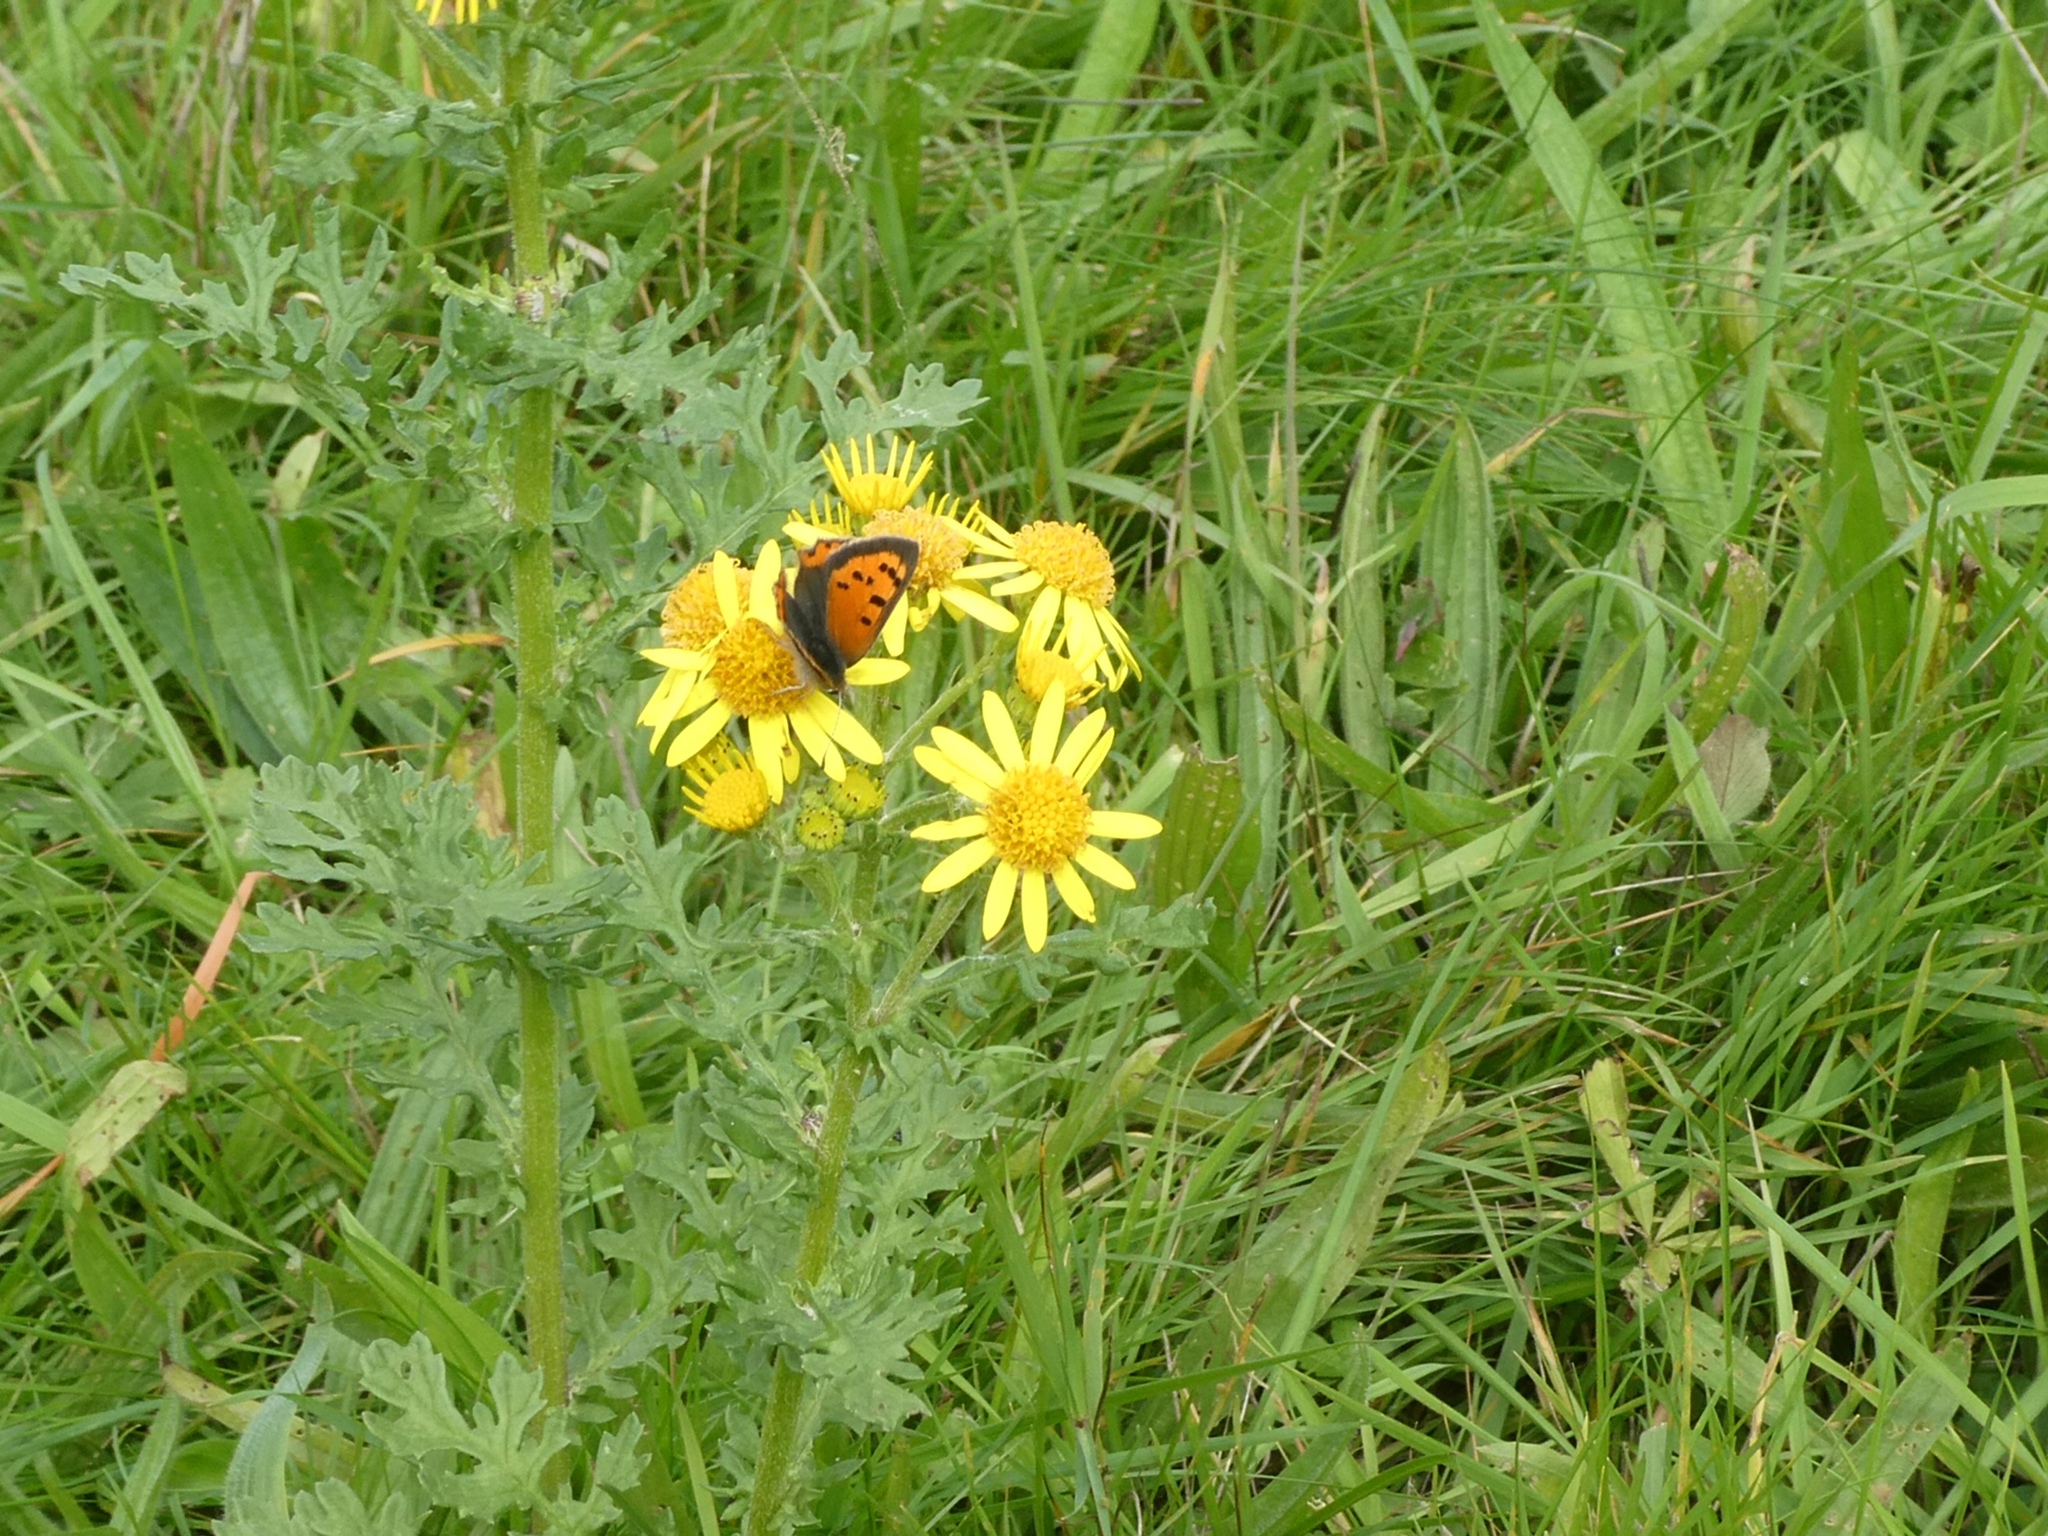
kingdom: Animalia
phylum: Arthropoda
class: Insecta
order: Lepidoptera
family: Lycaenidae
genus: Lycaena
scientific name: Lycaena phlaeas
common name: Small copper
